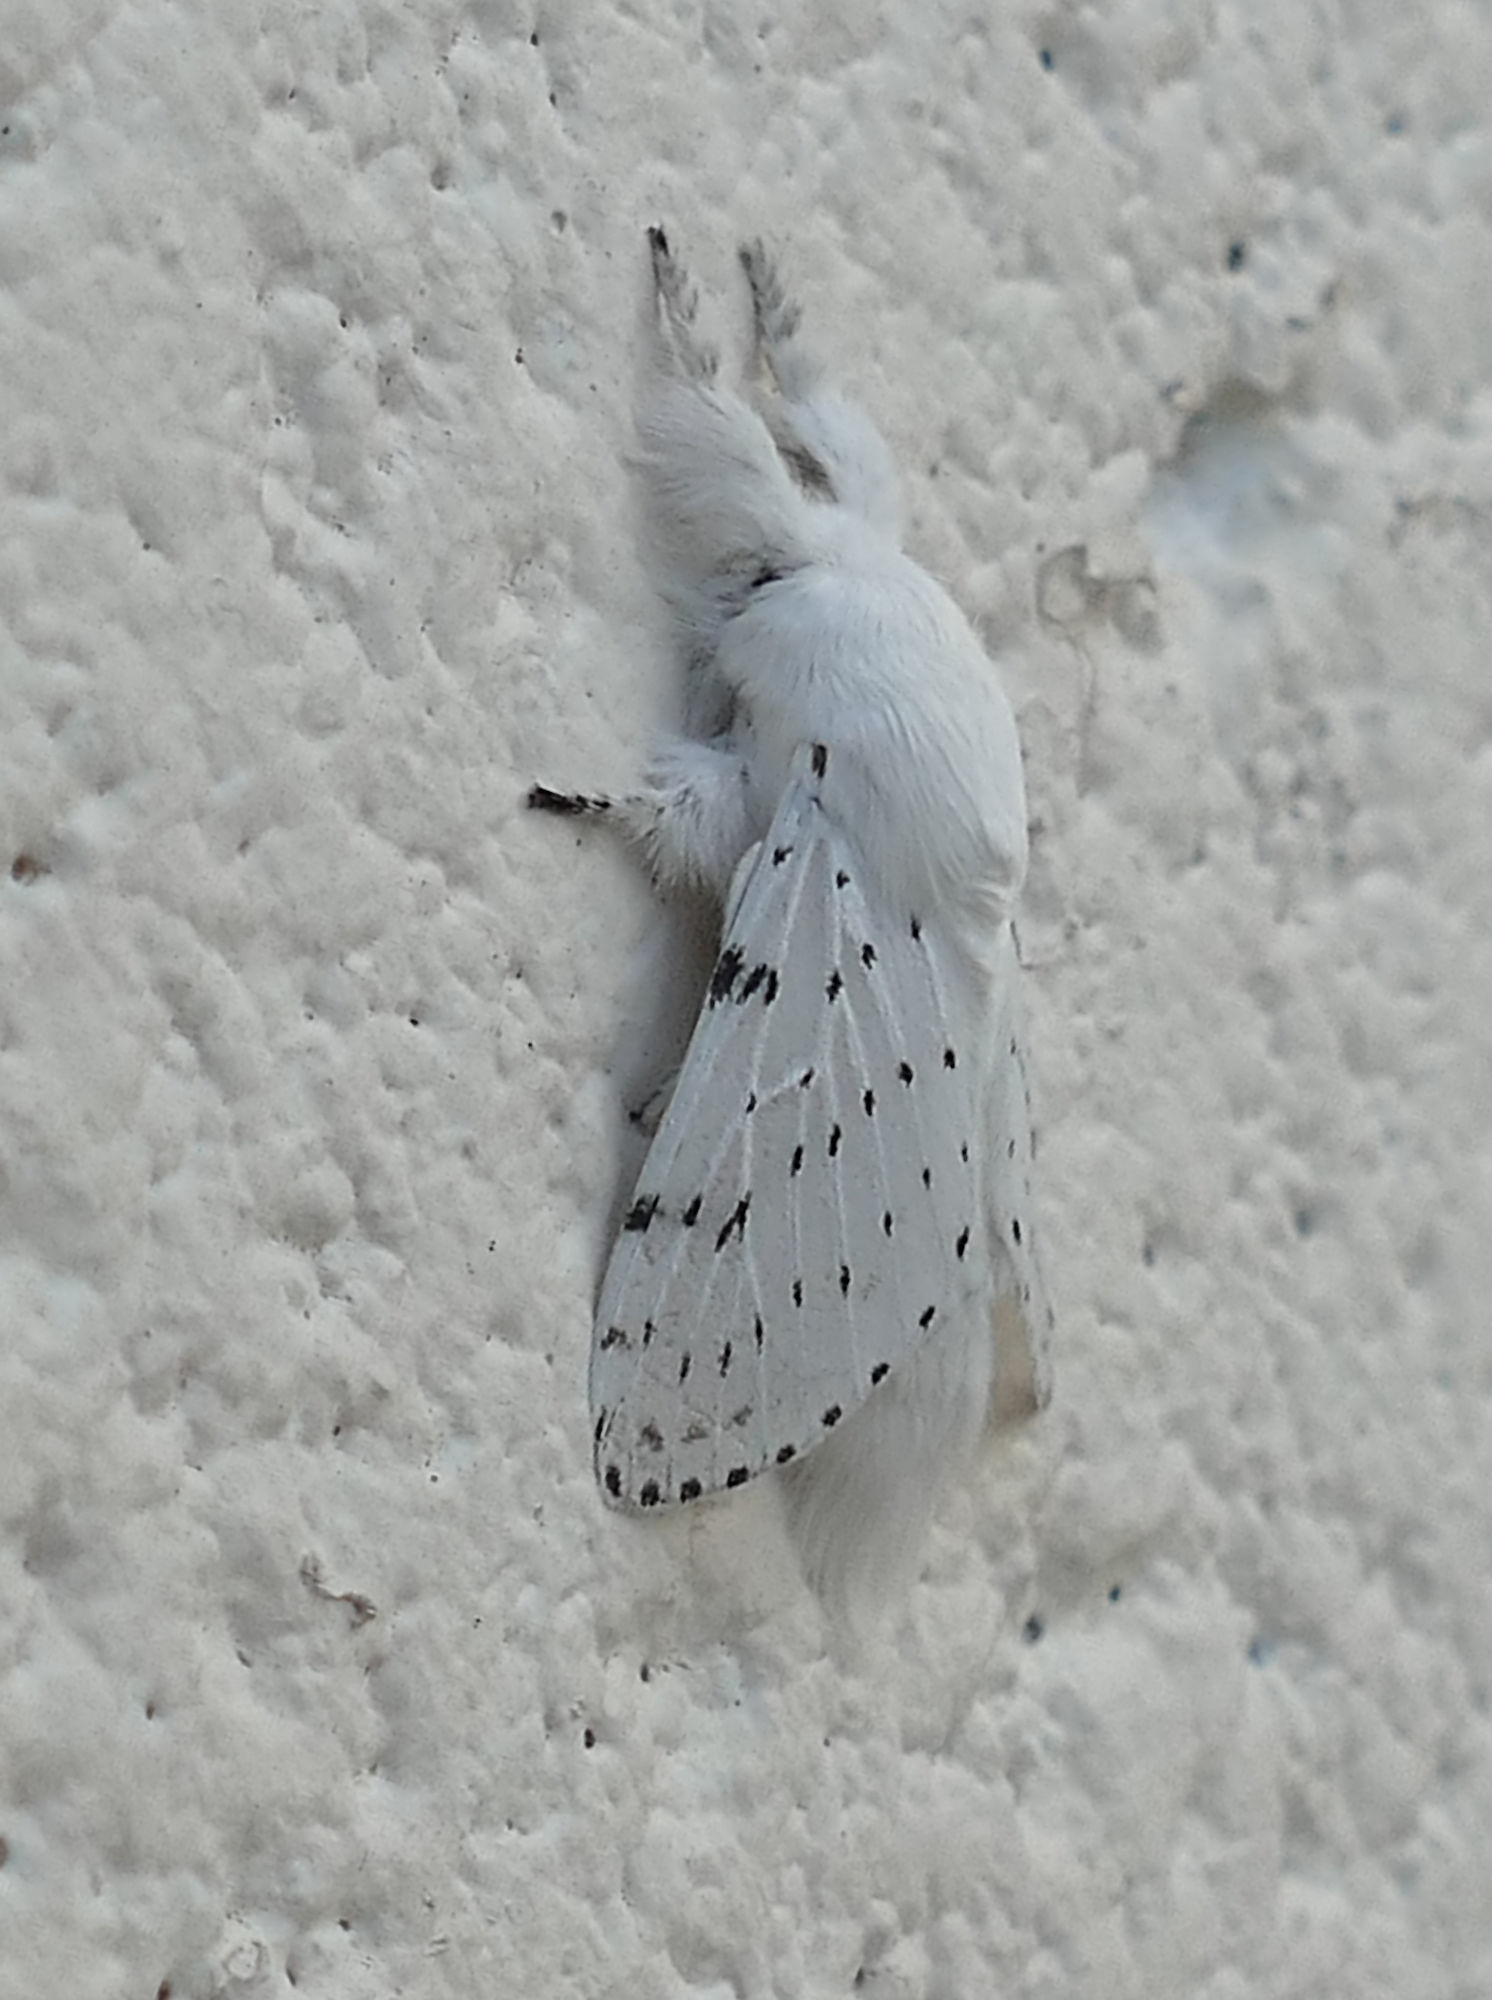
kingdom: Animalia
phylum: Arthropoda
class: Insecta
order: Lepidoptera
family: Lasiocampidae
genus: Artace
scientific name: Artace cribrarius
